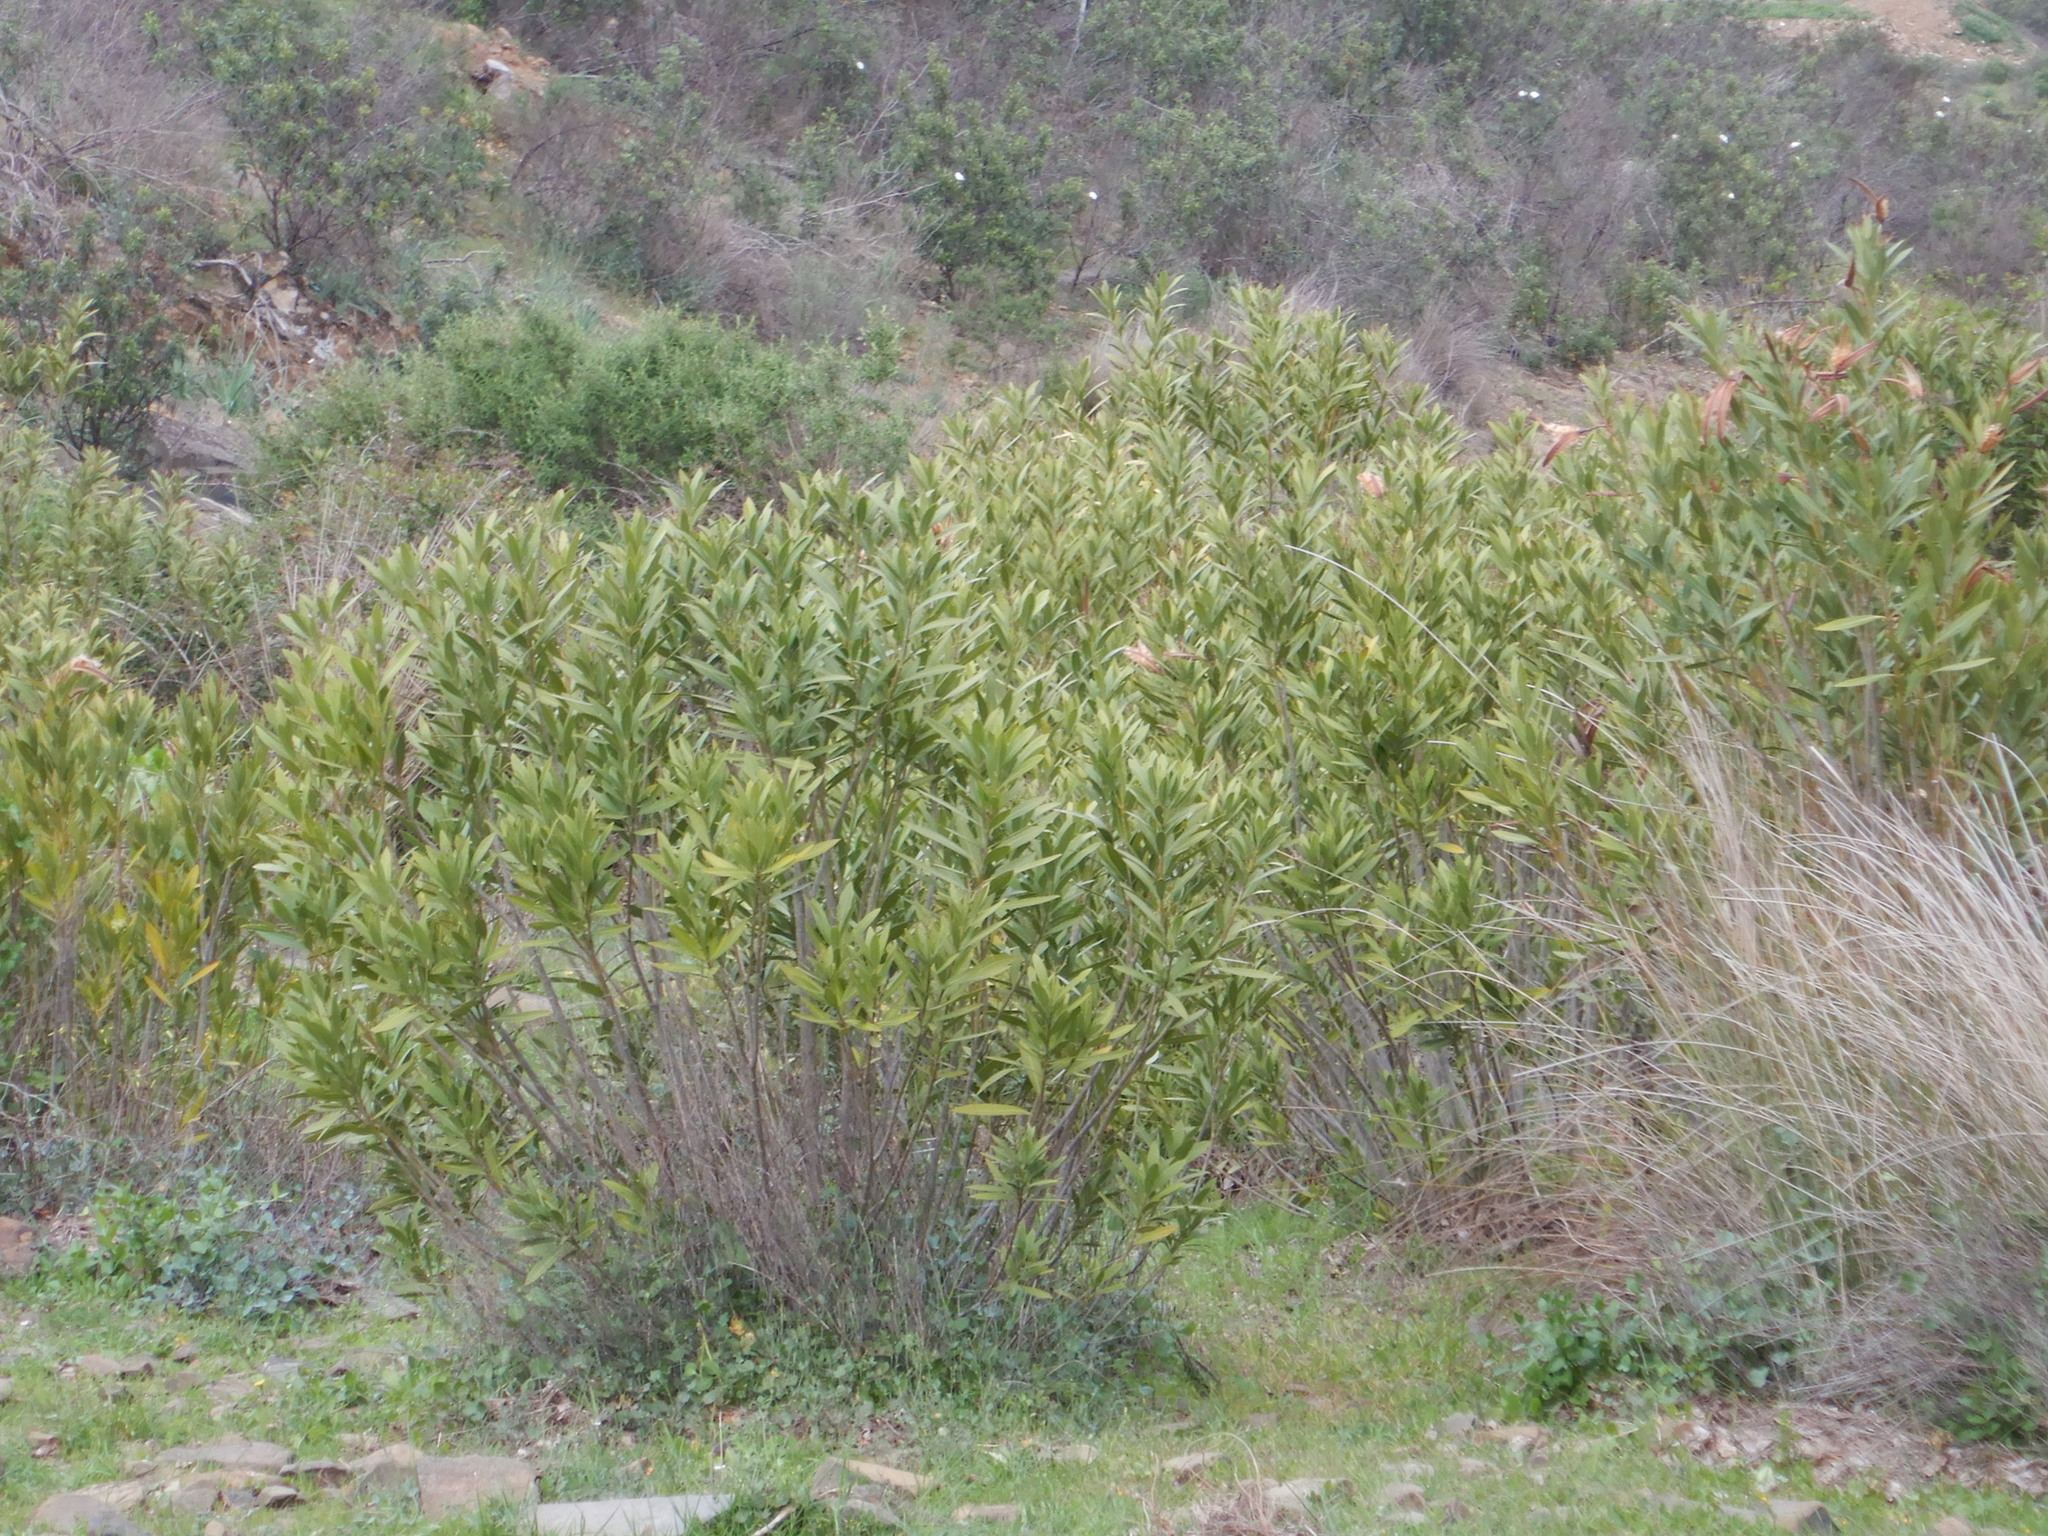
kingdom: Plantae
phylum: Tracheophyta
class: Magnoliopsida
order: Gentianales
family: Apocynaceae
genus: Nerium
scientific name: Nerium oleander
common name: Oleander
